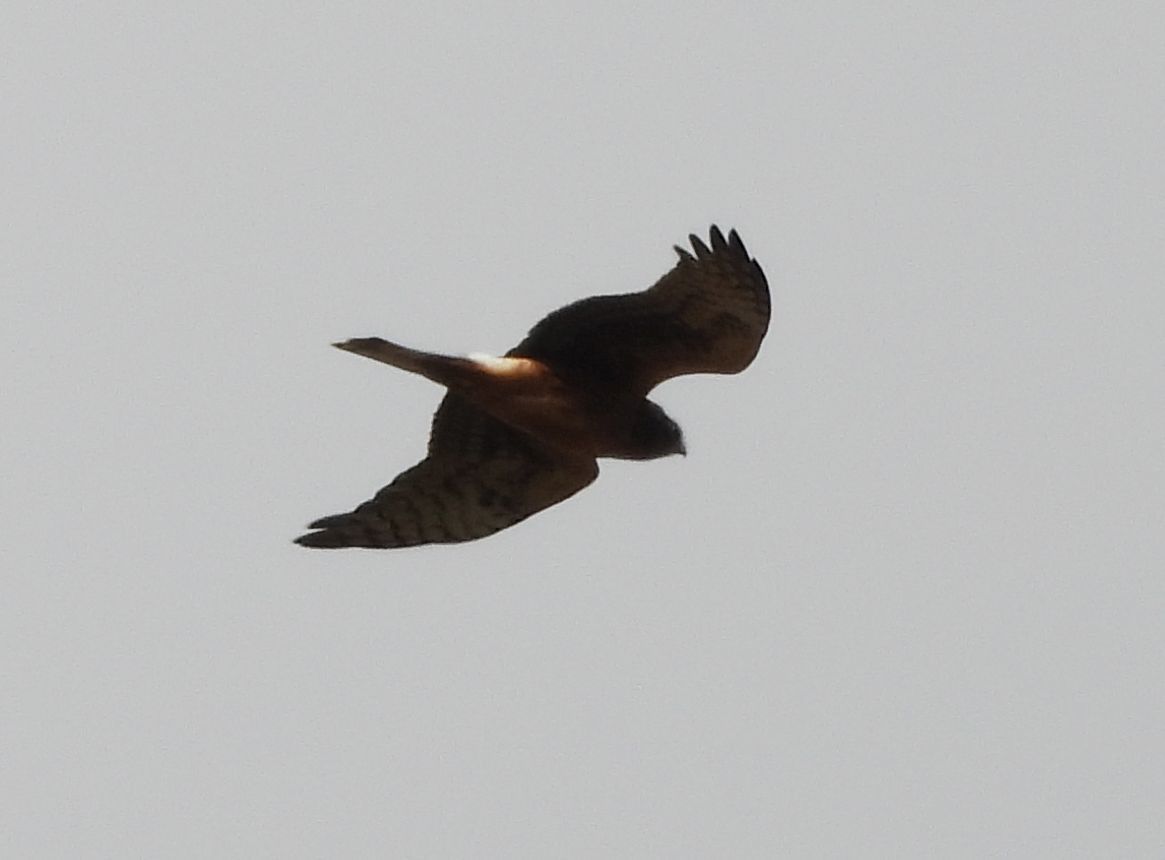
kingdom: Animalia
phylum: Chordata
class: Aves
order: Accipitriformes
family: Accipitridae
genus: Circus
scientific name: Circus cyaneus
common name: Hen harrier
